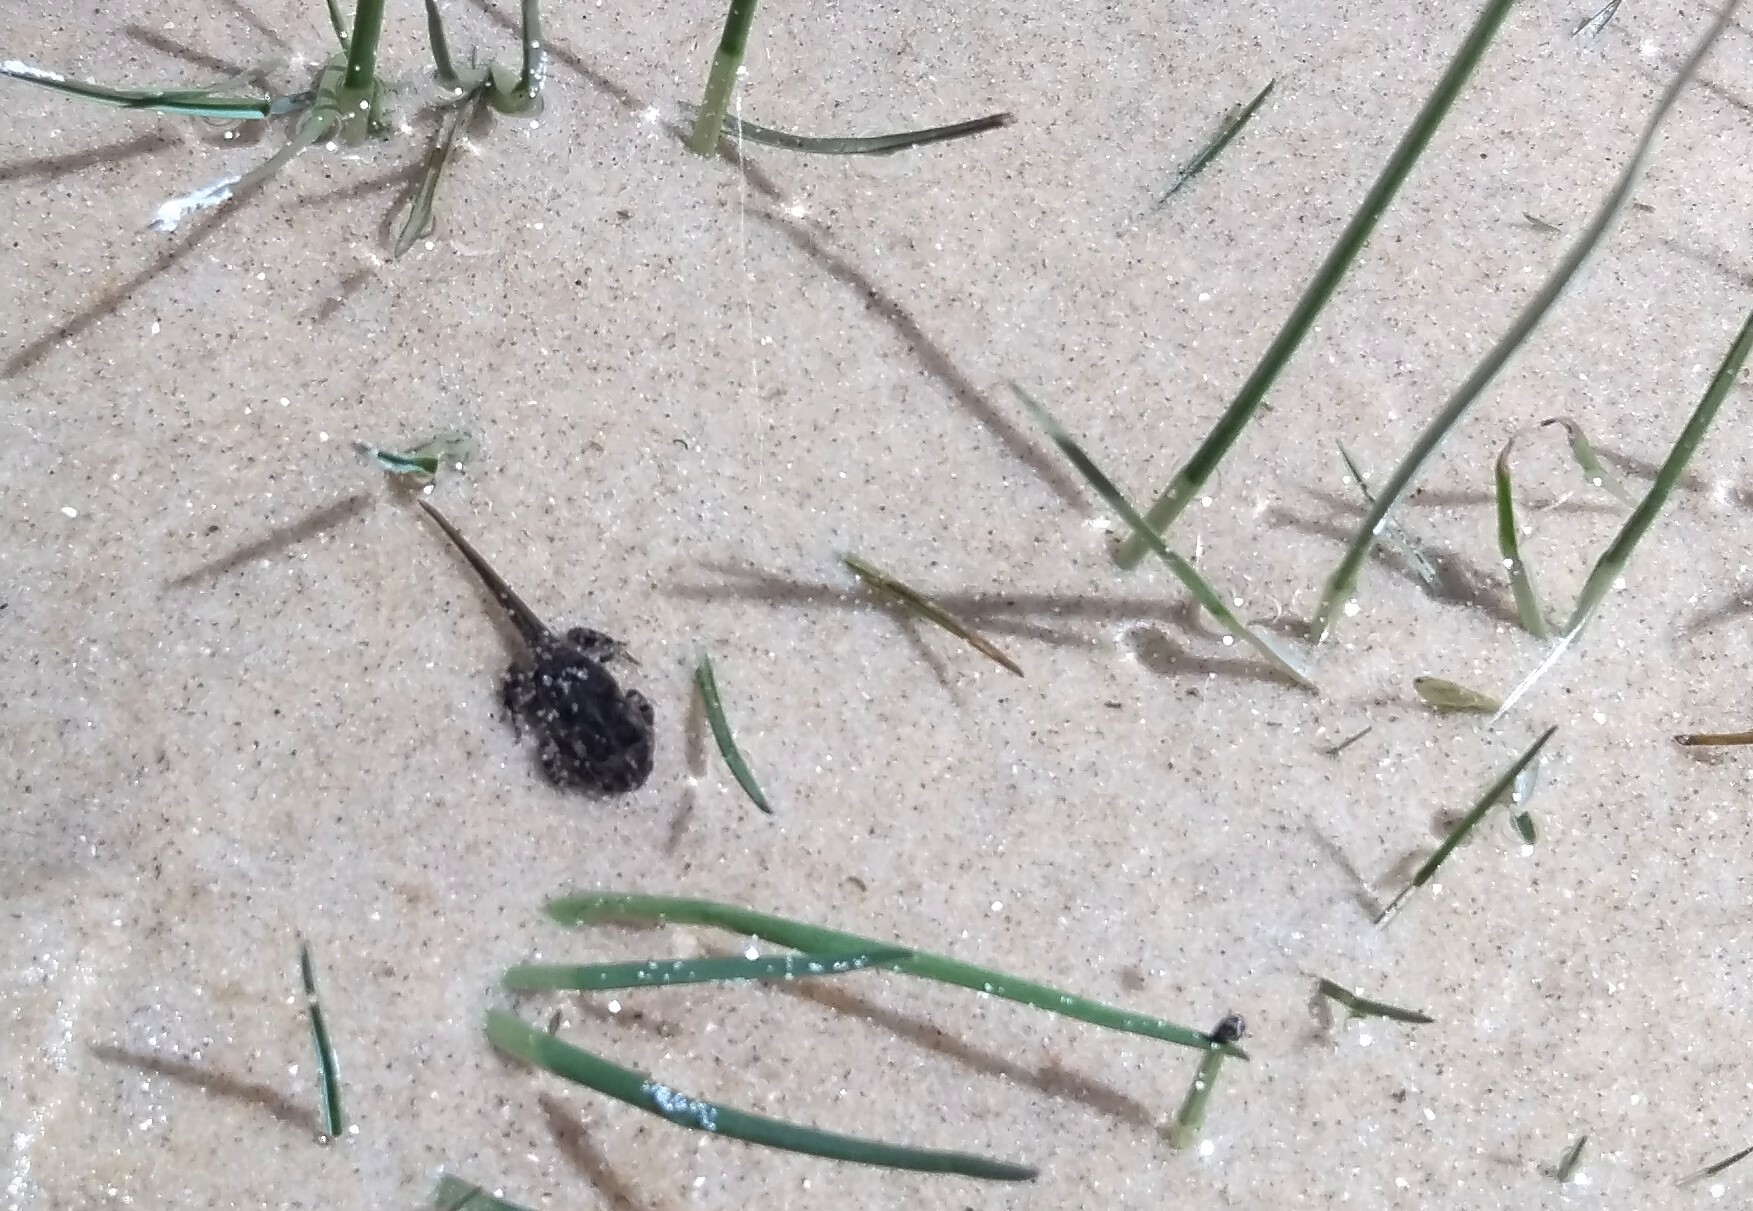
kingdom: Animalia
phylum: Chordata
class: Amphibia
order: Anura
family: Bufonidae
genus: Rhinella
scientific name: Rhinella arenarum
